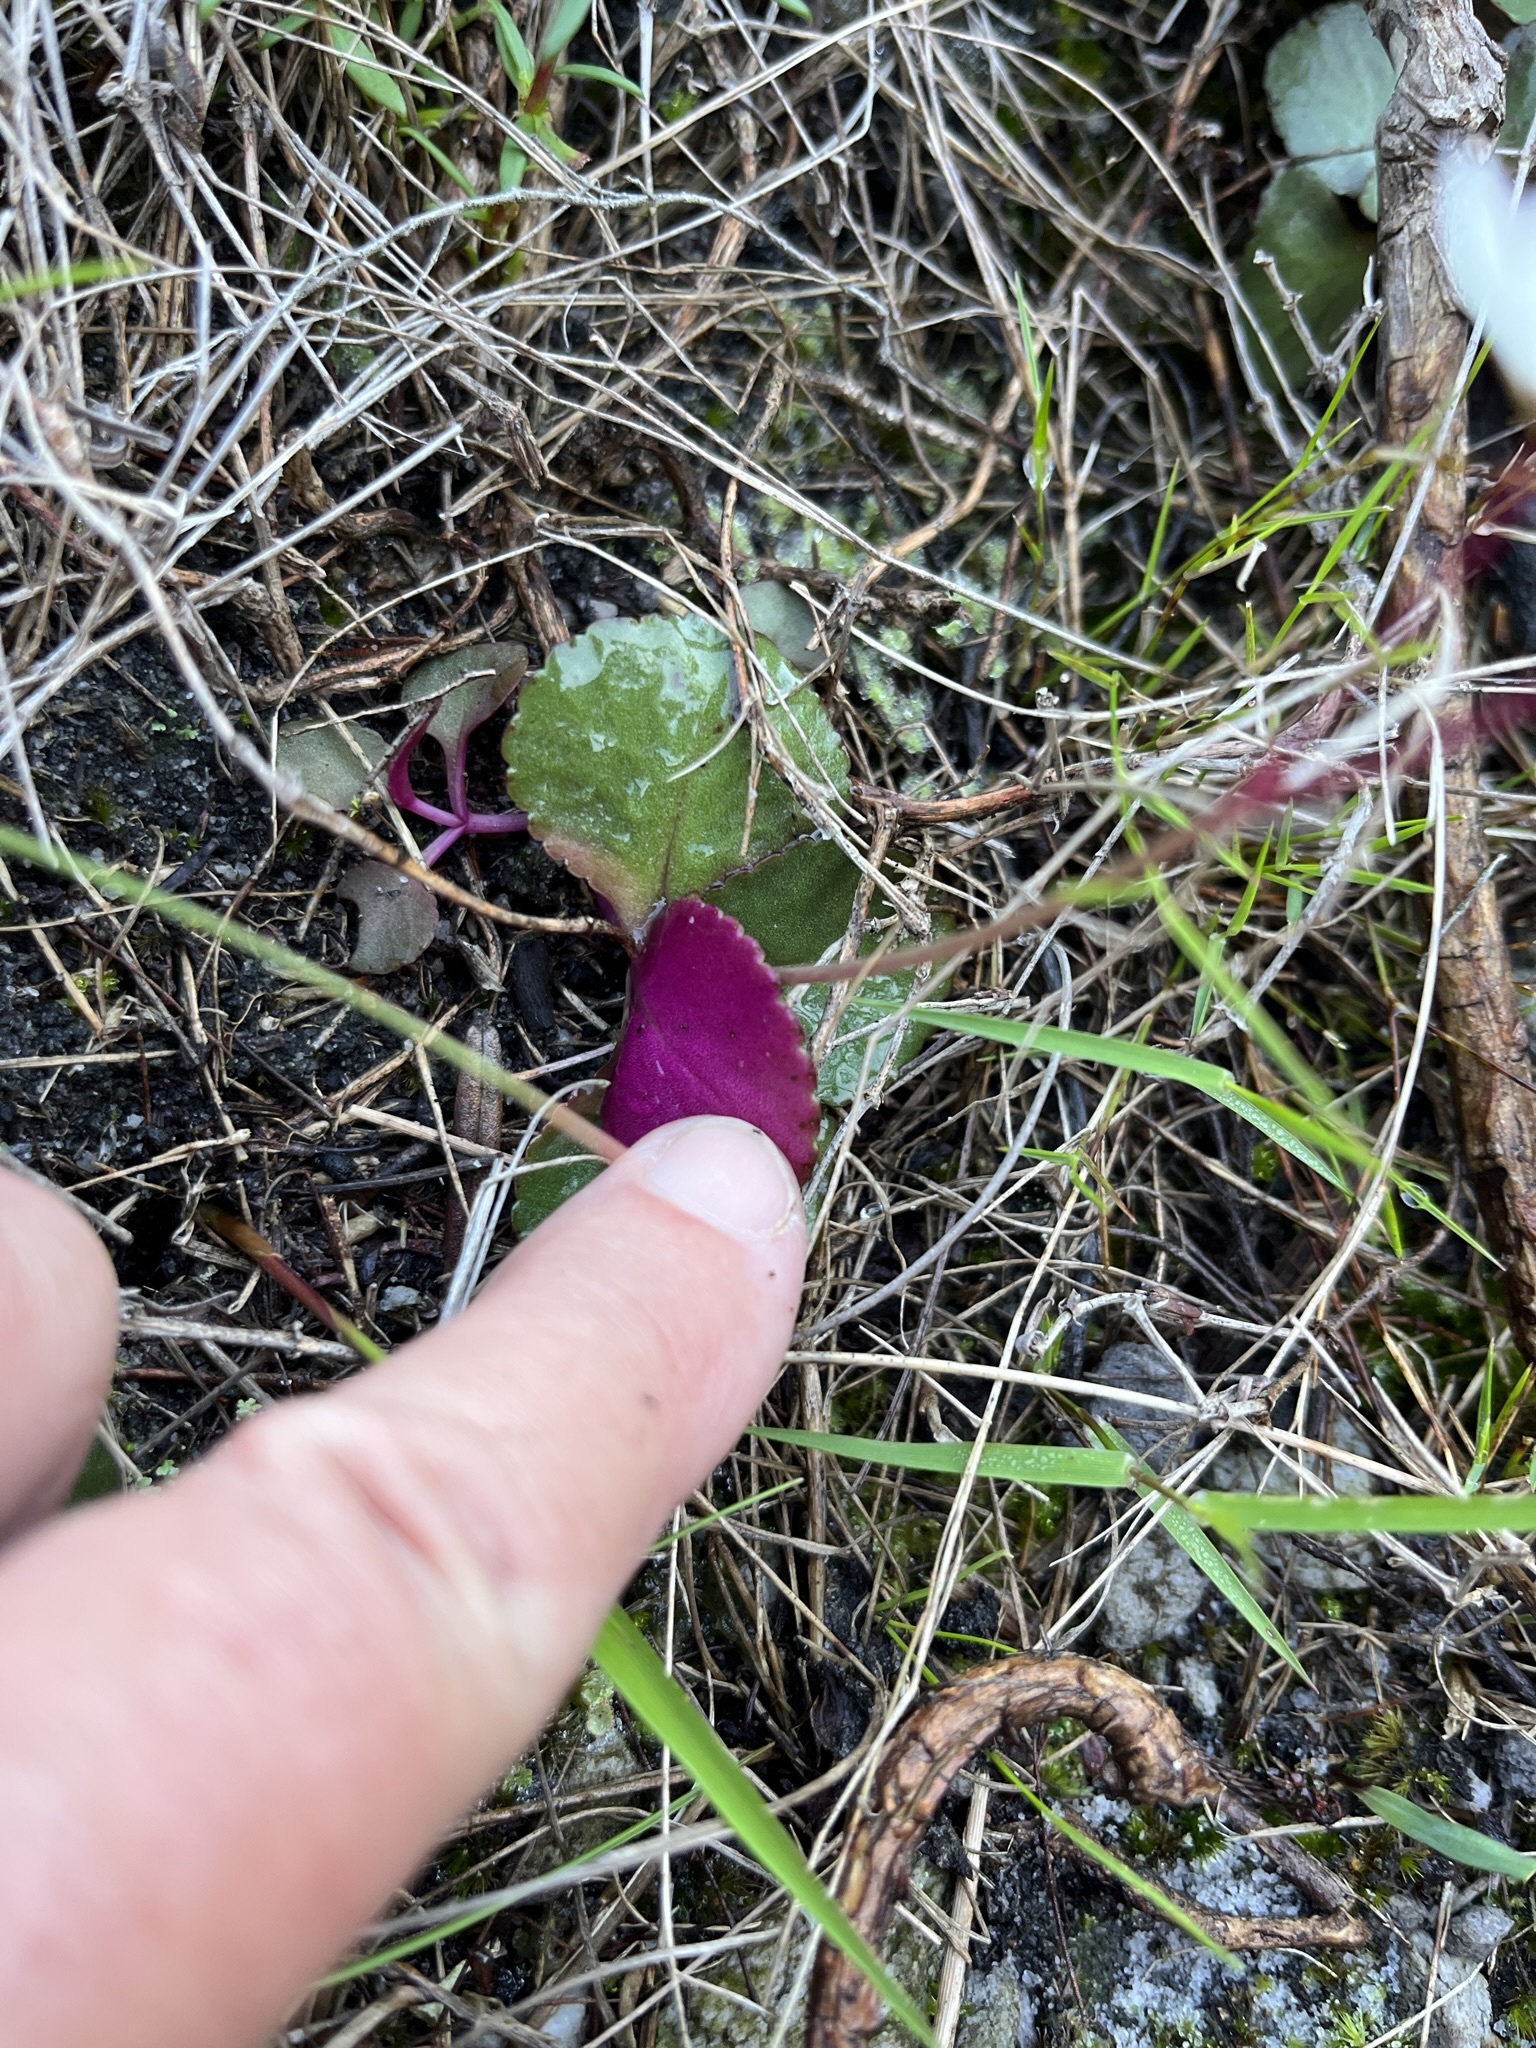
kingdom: Plantae
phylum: Tracheophyta
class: Magnoliopsida
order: Saxifragales
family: Crassulaceae
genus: Crassula
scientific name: Crassula capensis
